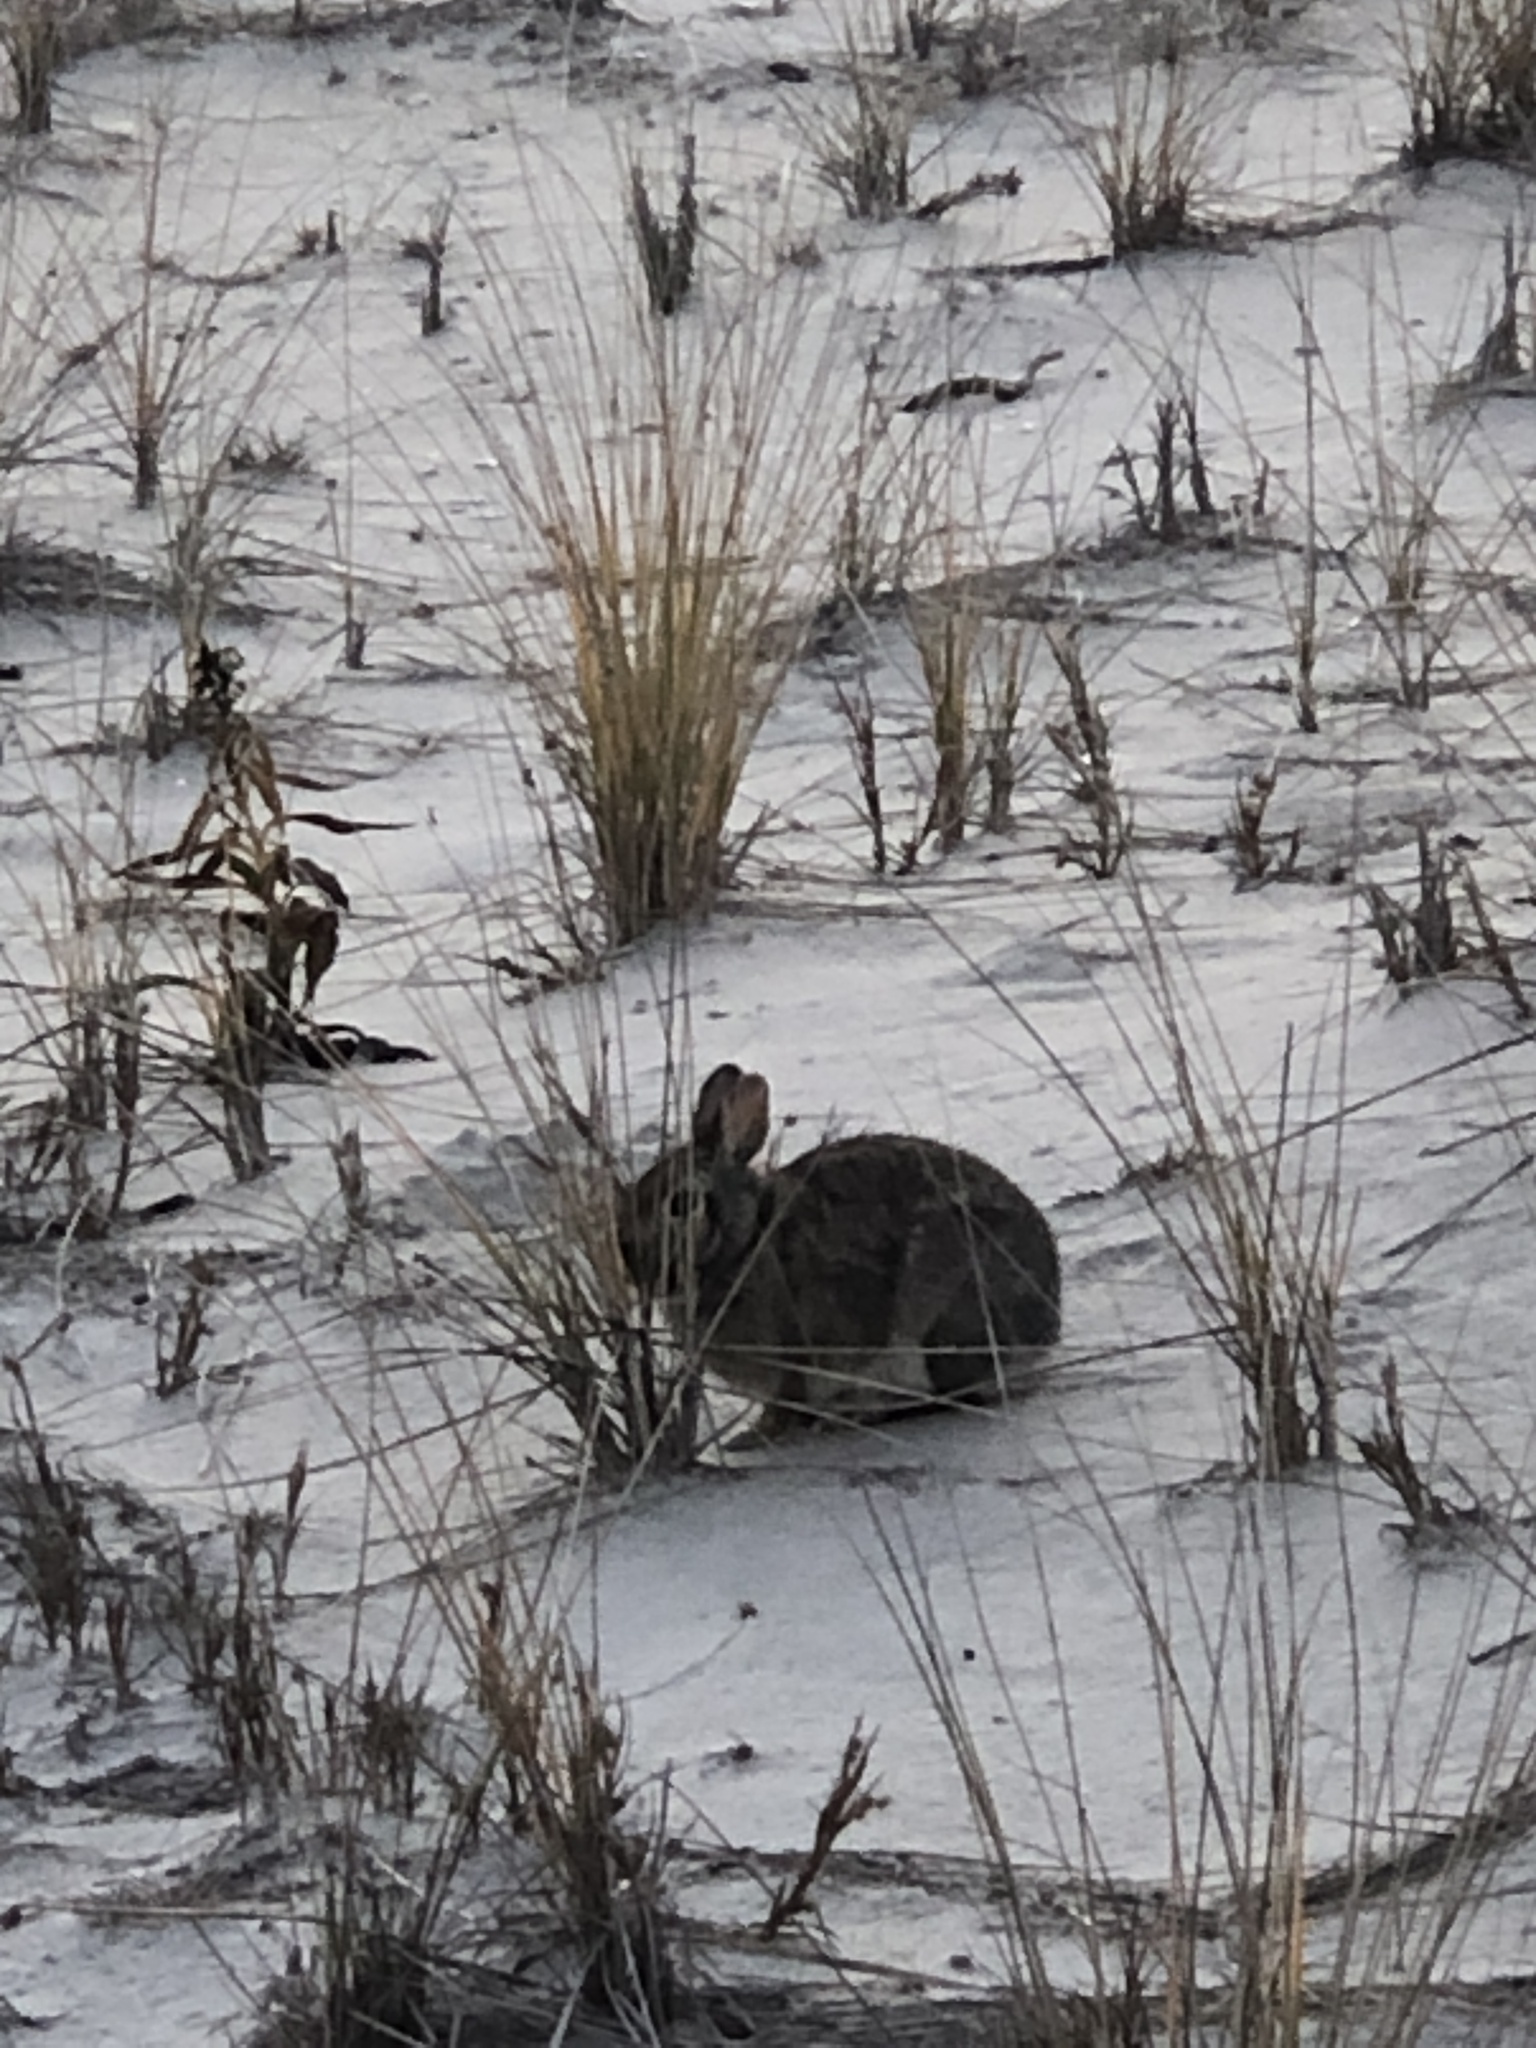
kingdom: Animalia
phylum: Chordata
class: Mammalia
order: Lagomorpha
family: Leporidae
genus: Sylvilagus
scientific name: Sylvilagus floridanus
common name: Eastern cottontail
